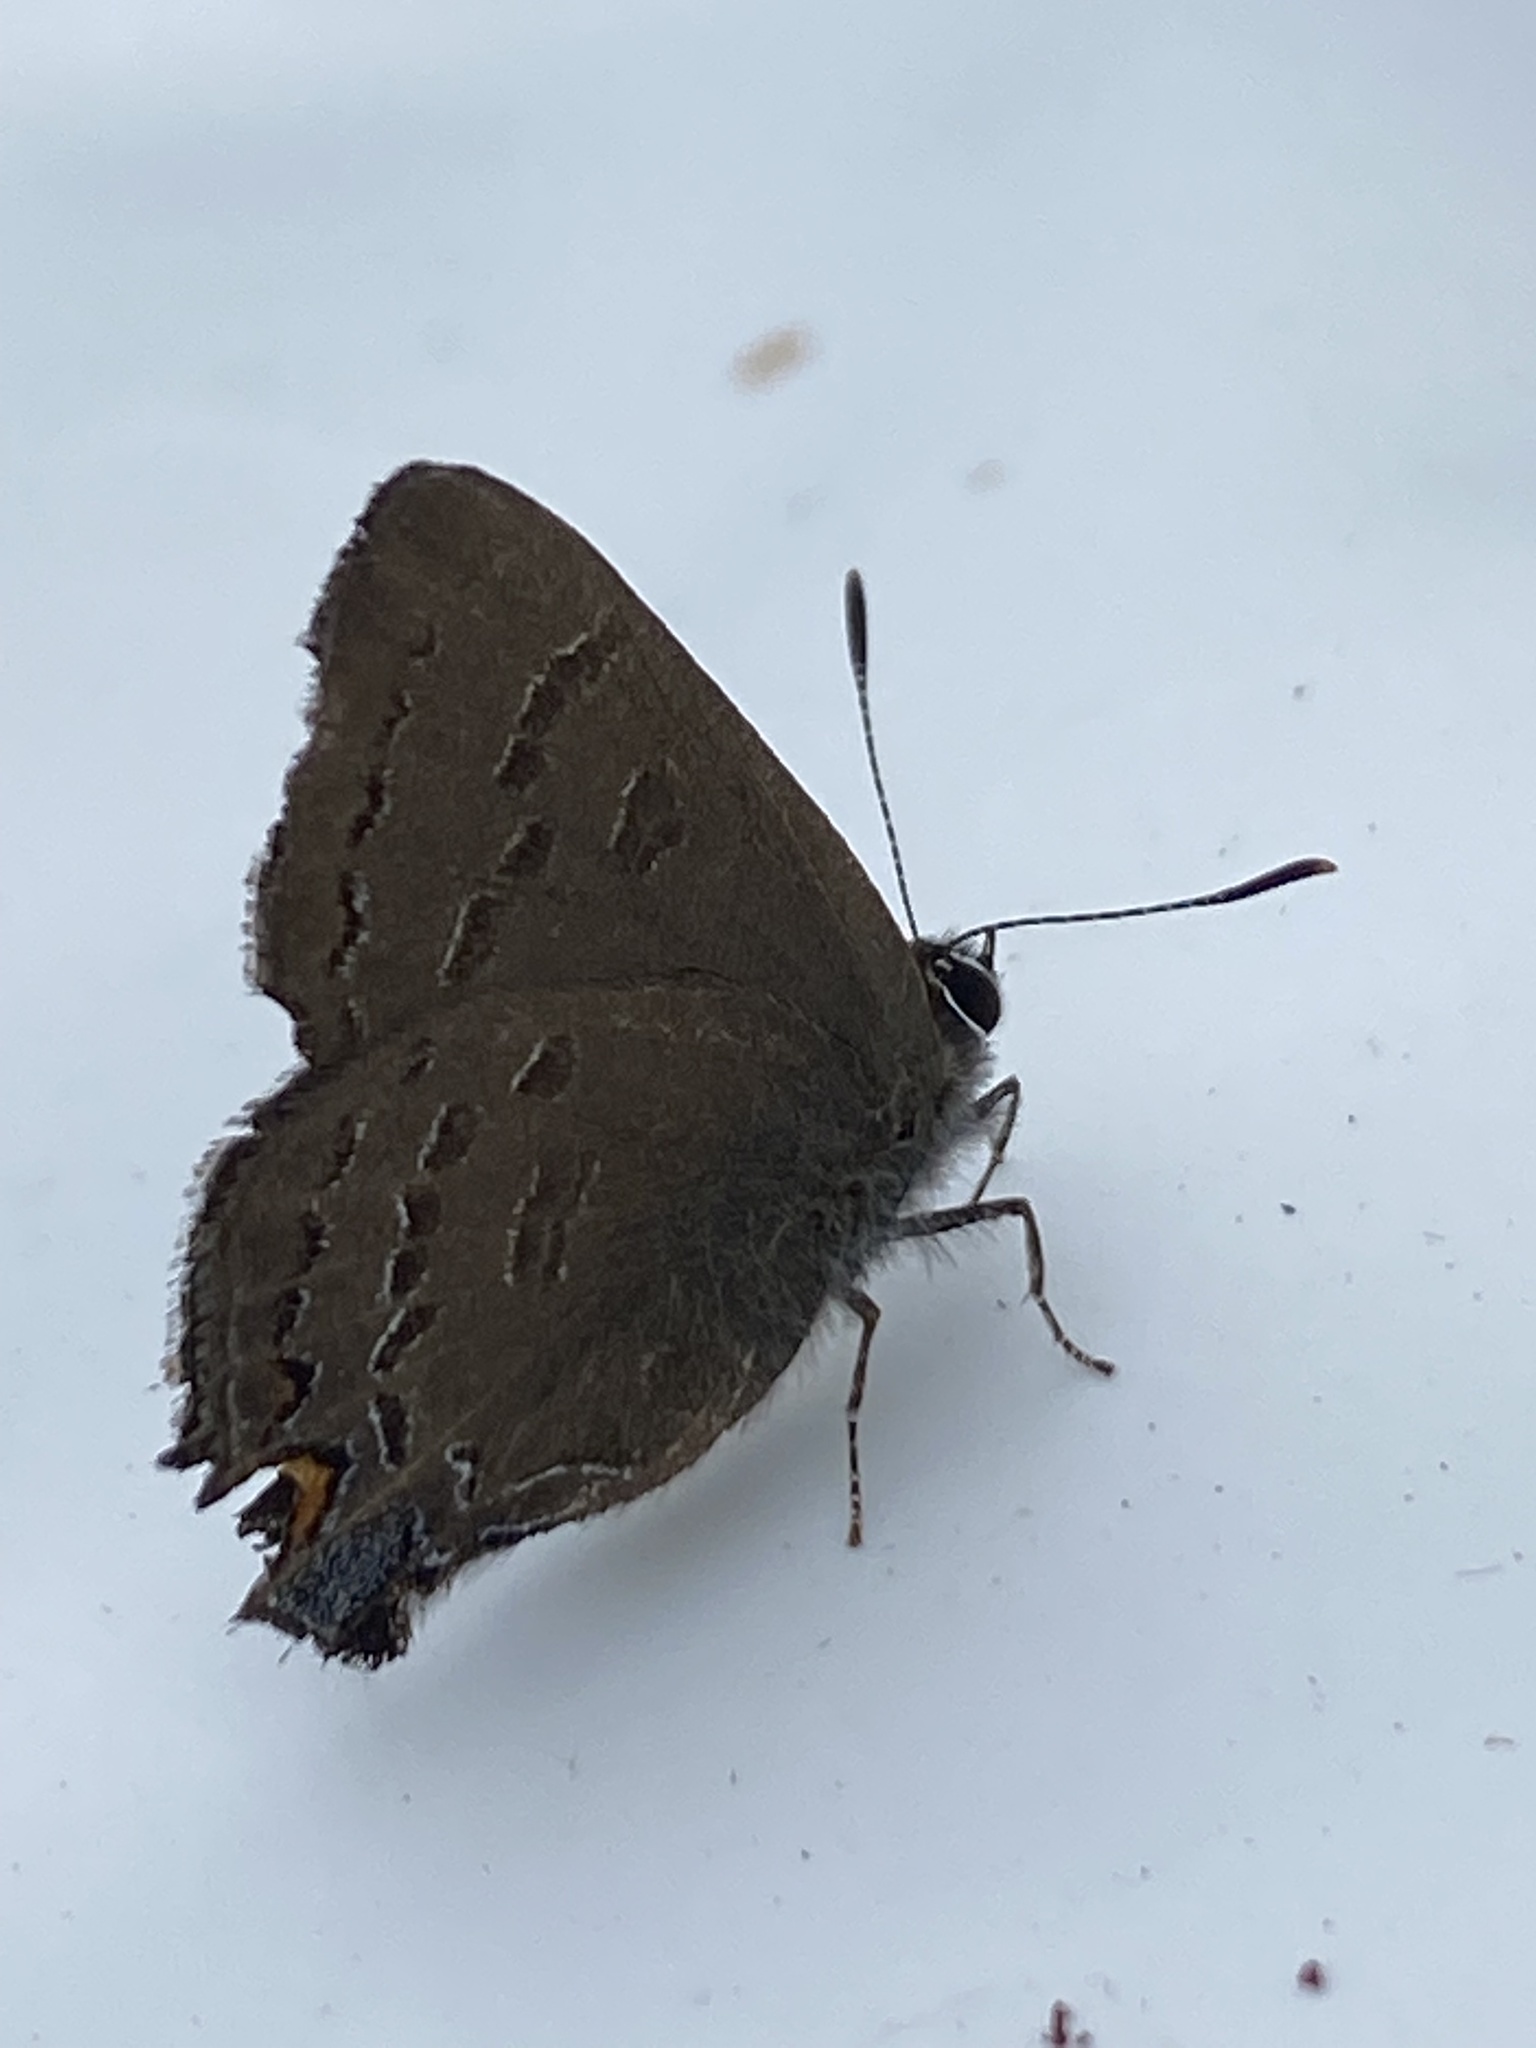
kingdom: Animalia
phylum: Arthropoda
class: Insecta
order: Lepidoptera
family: Lycaenidae
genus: Satyrium
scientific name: Satyrium calanus
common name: Banded hairstreak
